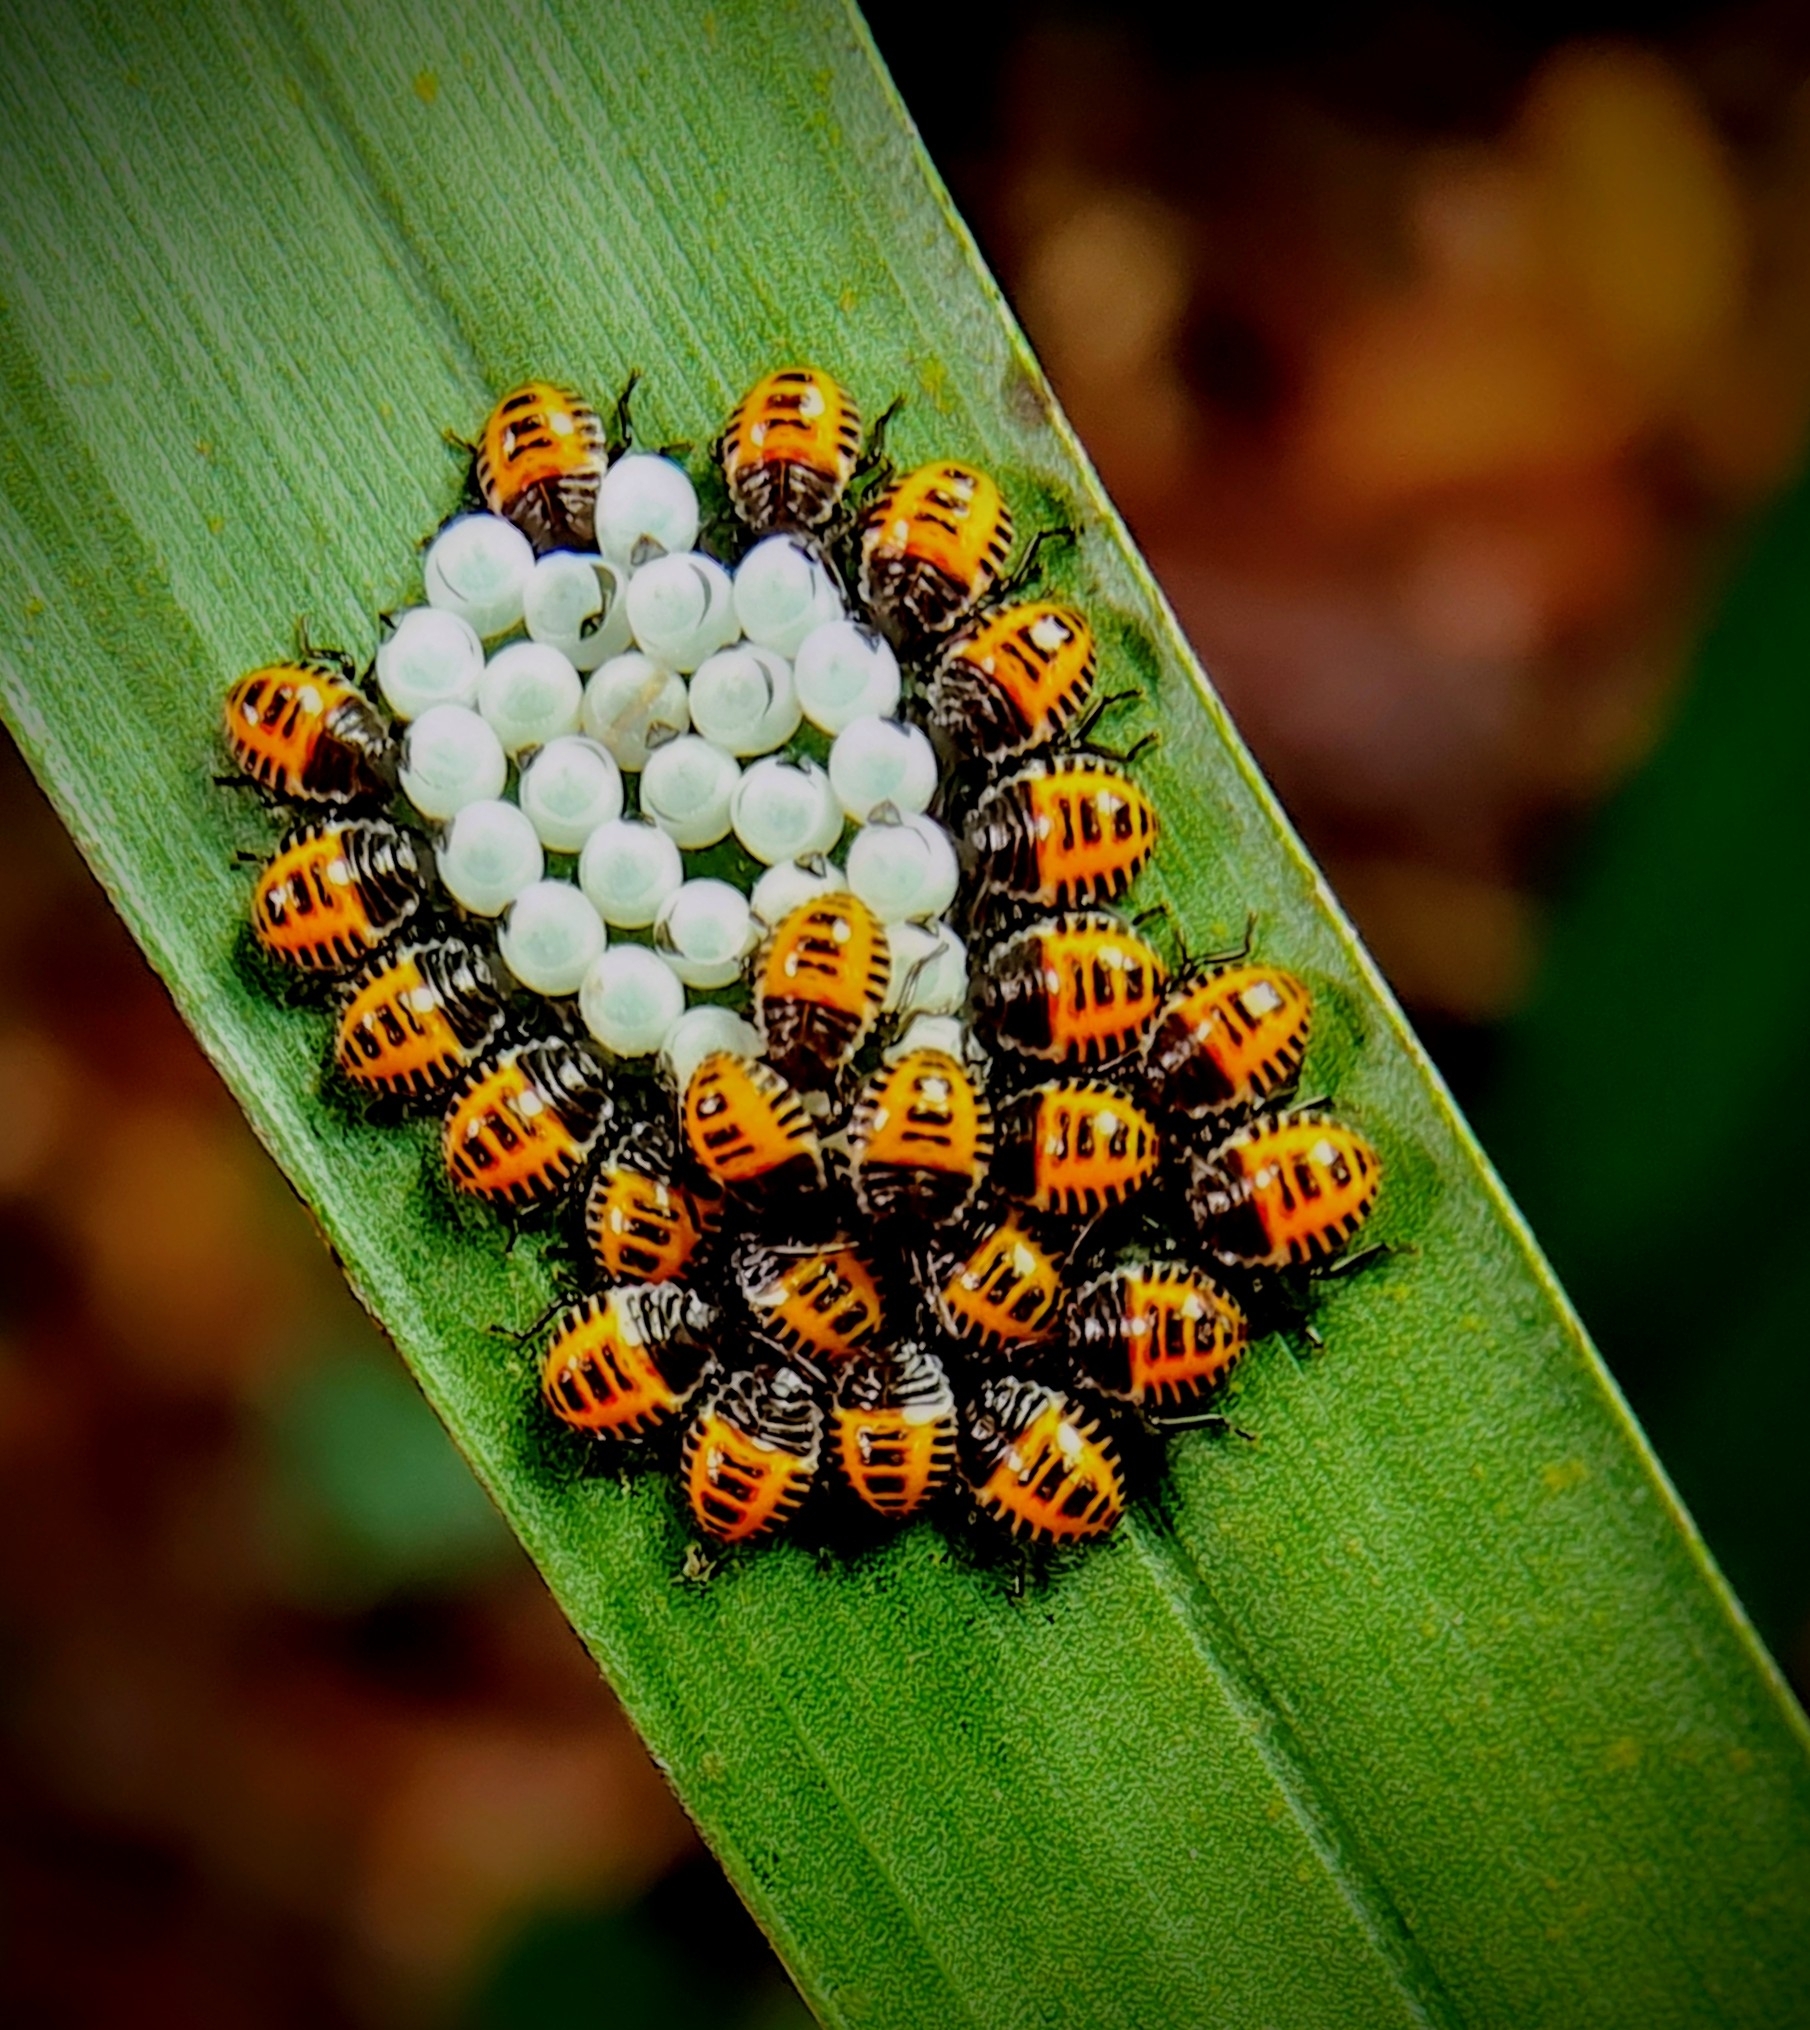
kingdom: Animalia
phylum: Arthropoda
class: Insecta
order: Hemiptera
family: Pentatomidae
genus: Halyomorpha
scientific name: Halyomorpha halys
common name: Brown marmorated stink bug
